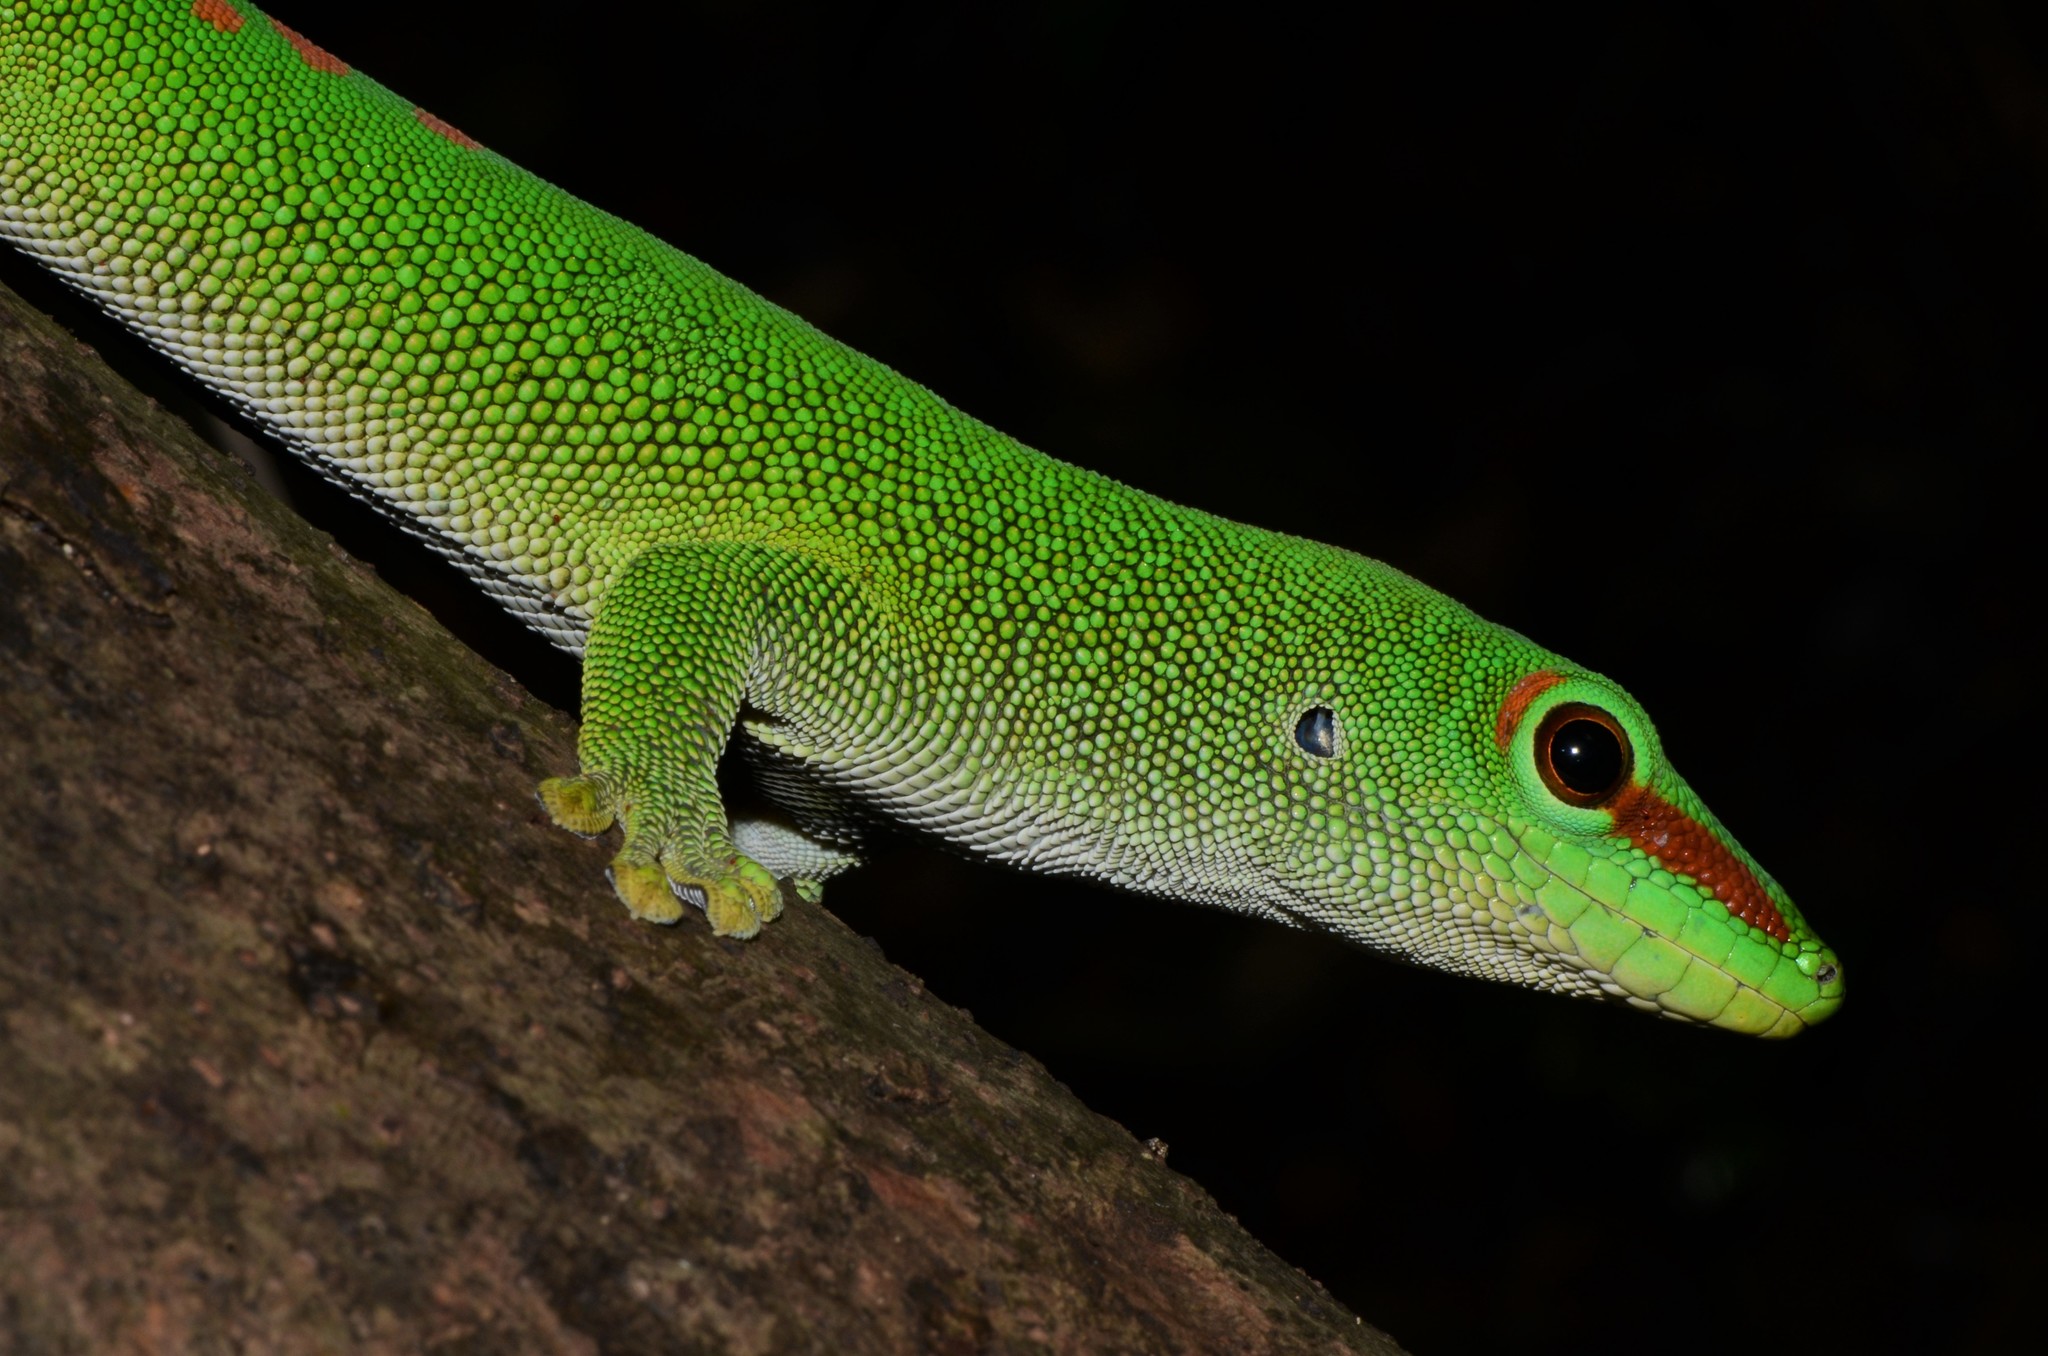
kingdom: Animalia
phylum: Chordata
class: Squamata
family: Gekkonidae
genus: Phelsuma
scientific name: Phelsuma grandis
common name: Madagascar giant day gecko
